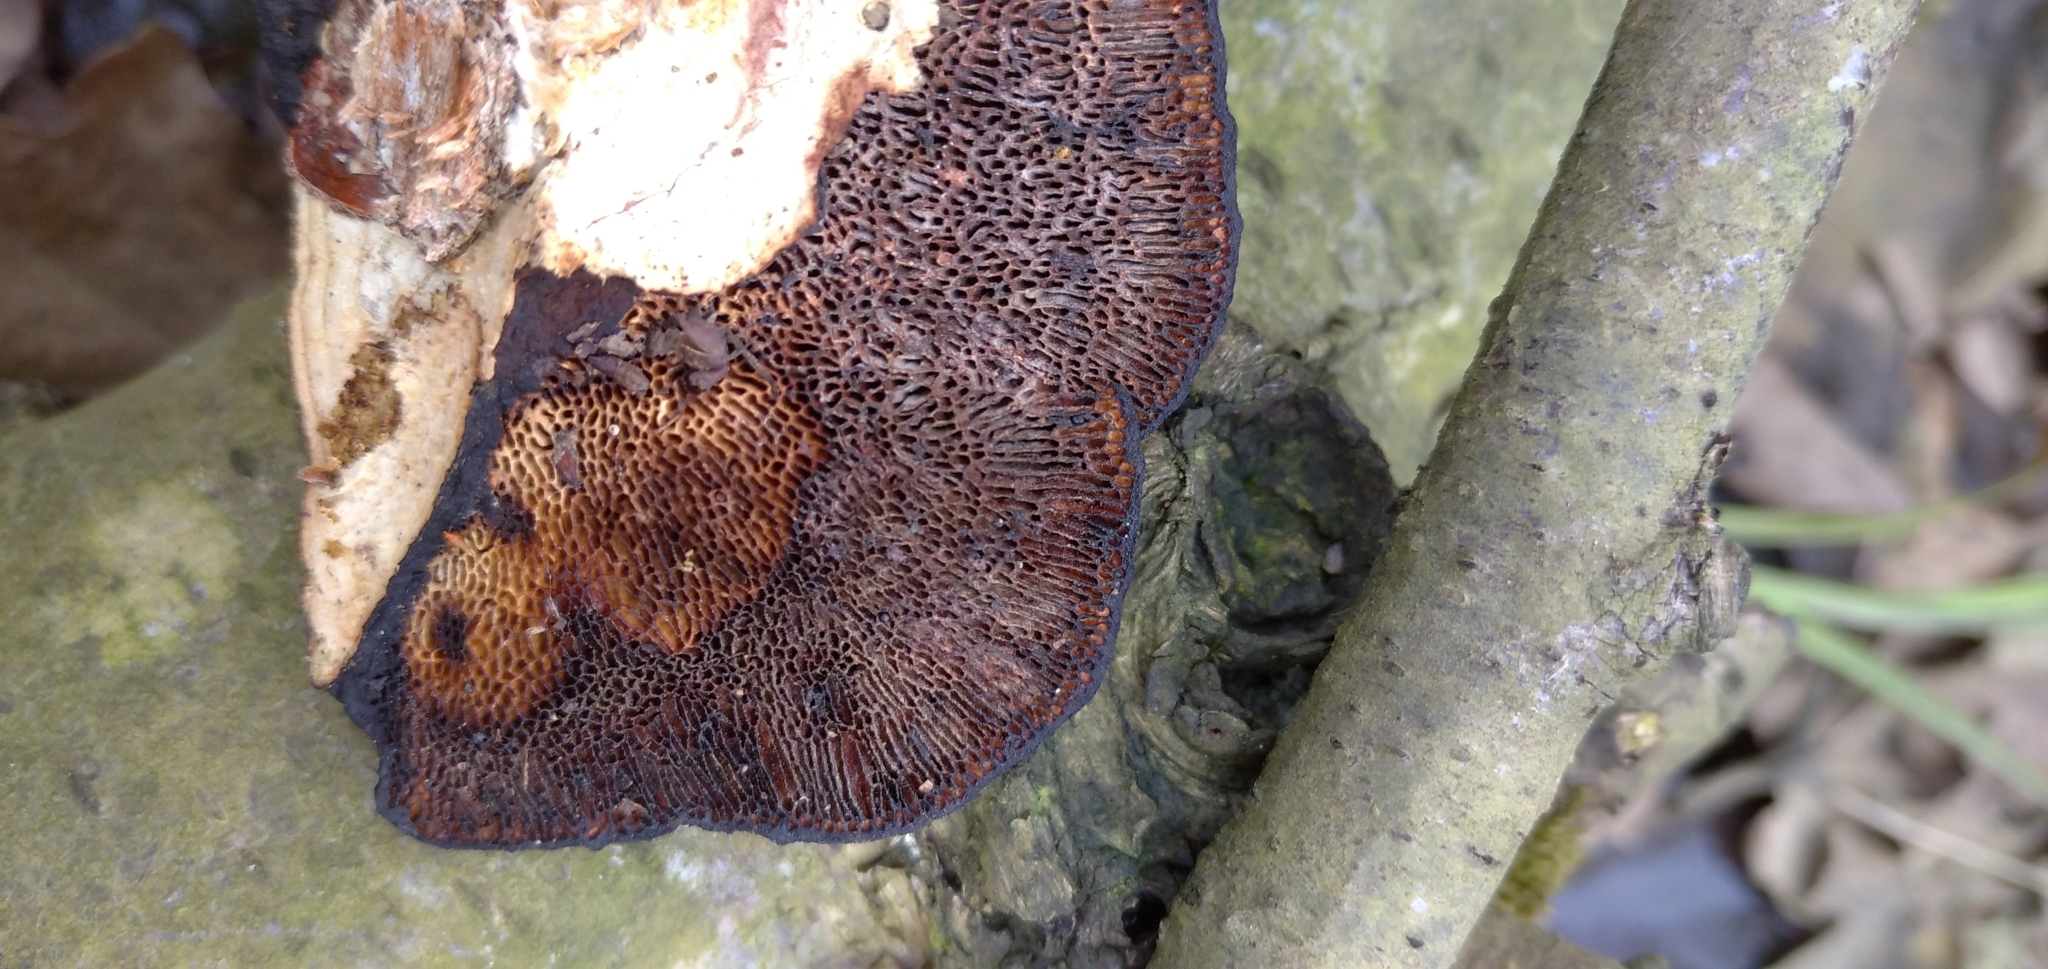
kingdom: Fungi
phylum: Basidiomycota
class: Agaricomycetes
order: Polyporales
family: Polyporaceae
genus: Daedaleopsis
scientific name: Daedaleopsis confragosa
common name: Blushing bracket
